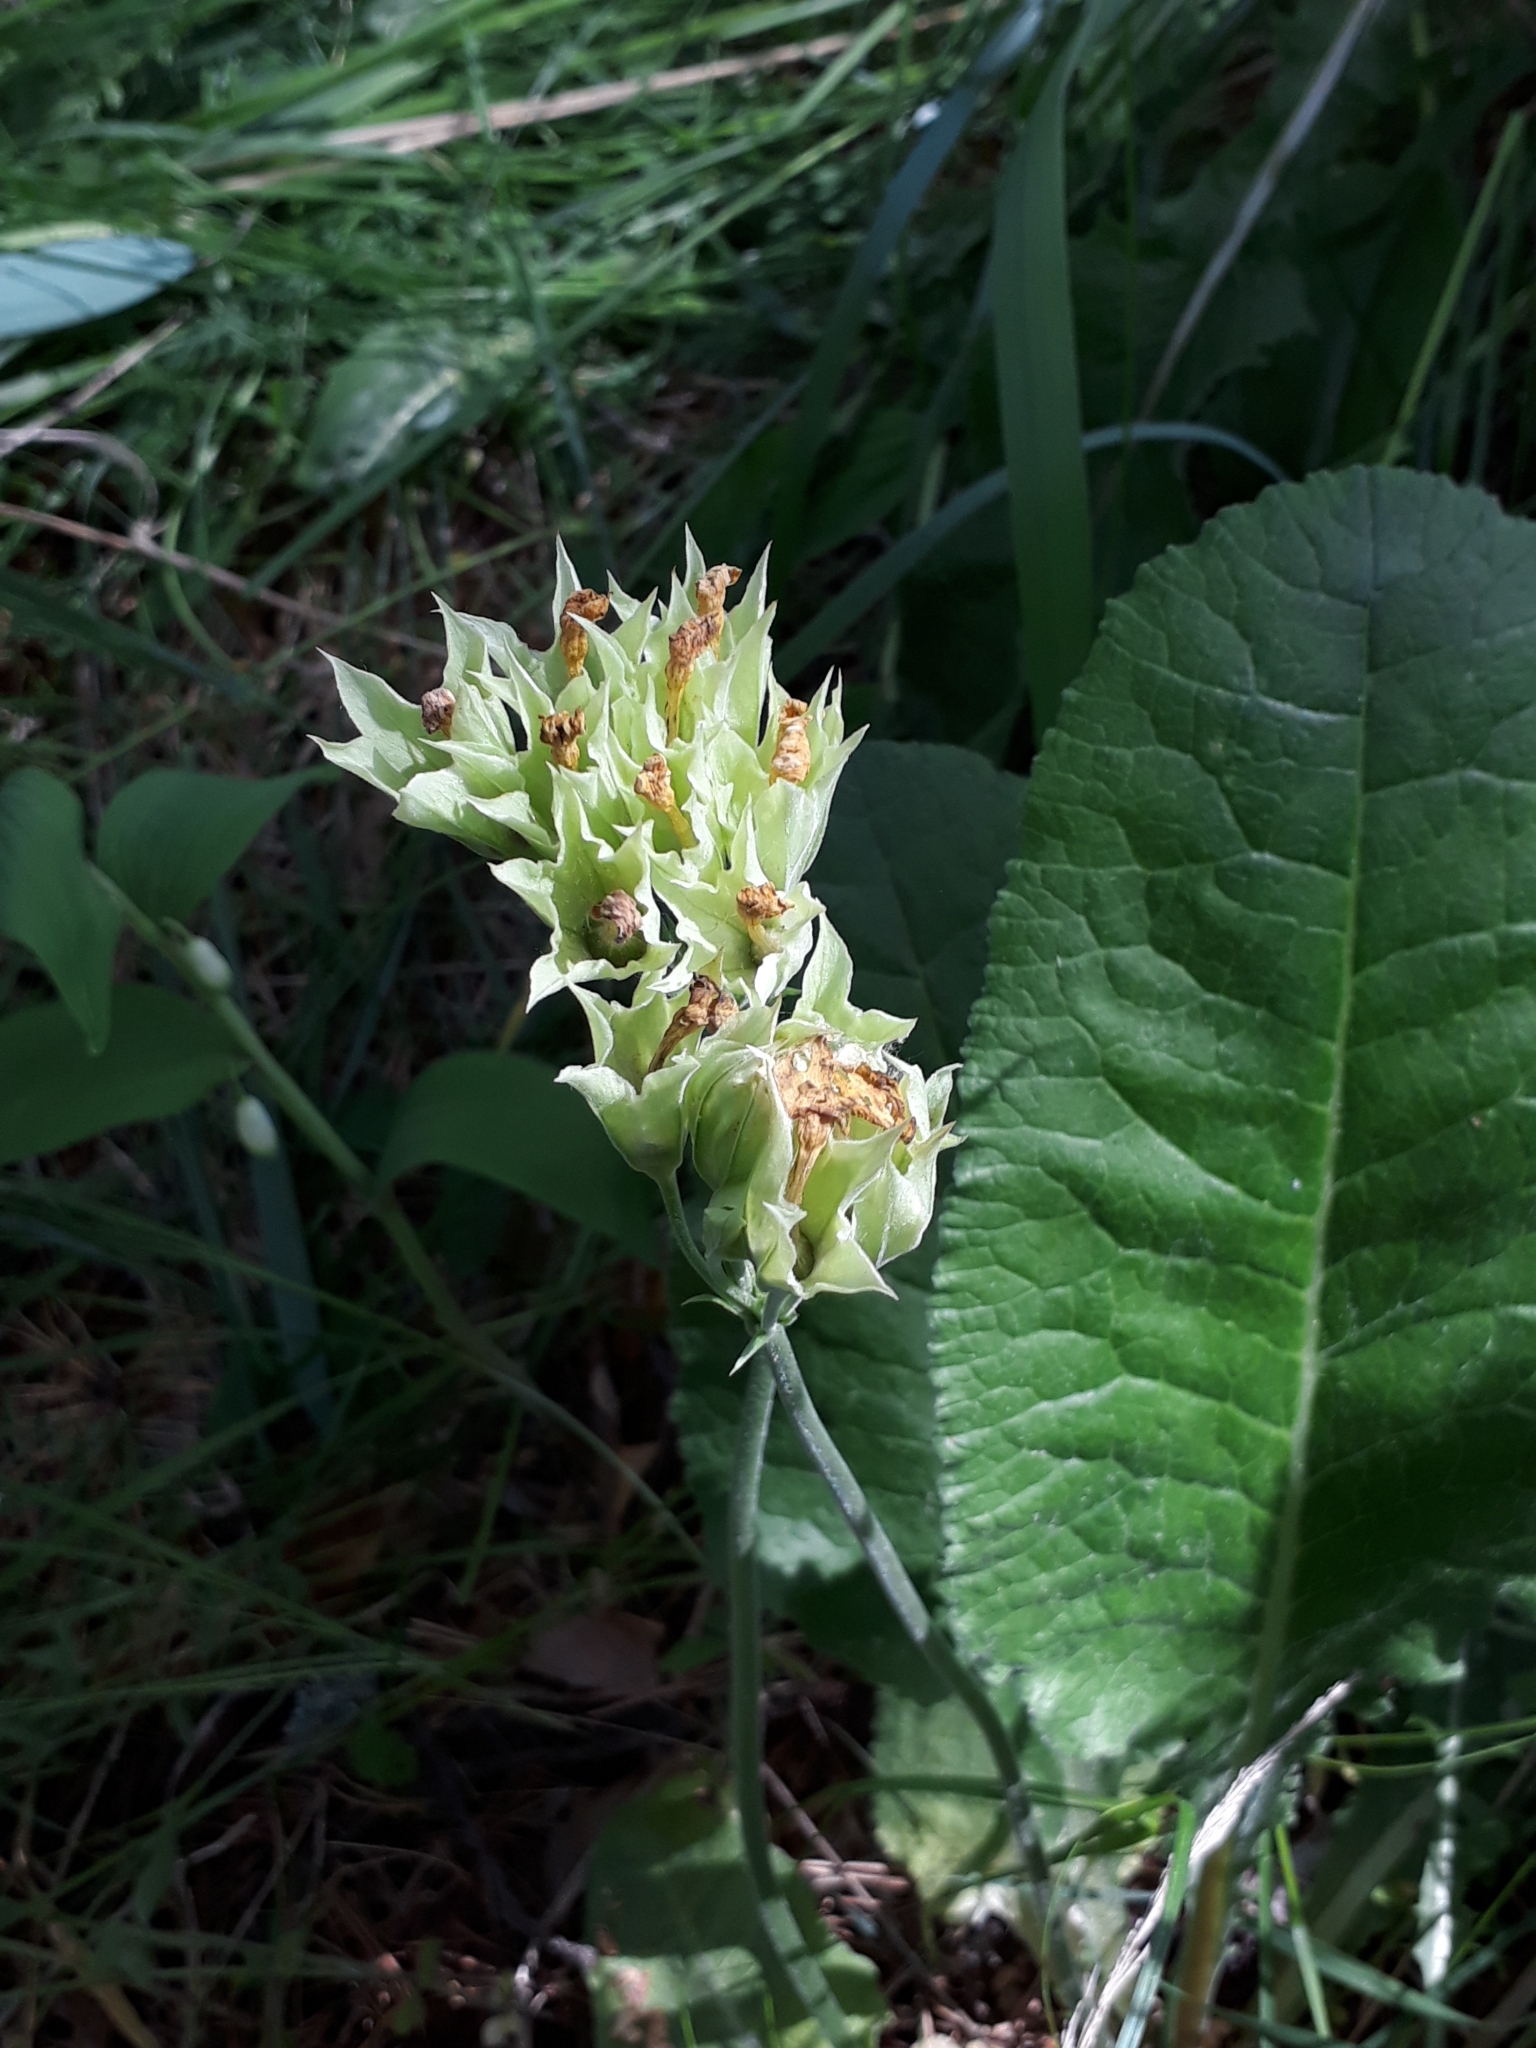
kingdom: Plantae
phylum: Tracheophyta
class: Magnoliopsida
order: Ericales
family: Primulaceae
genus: Primula
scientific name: Primula veris
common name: Cowslip
